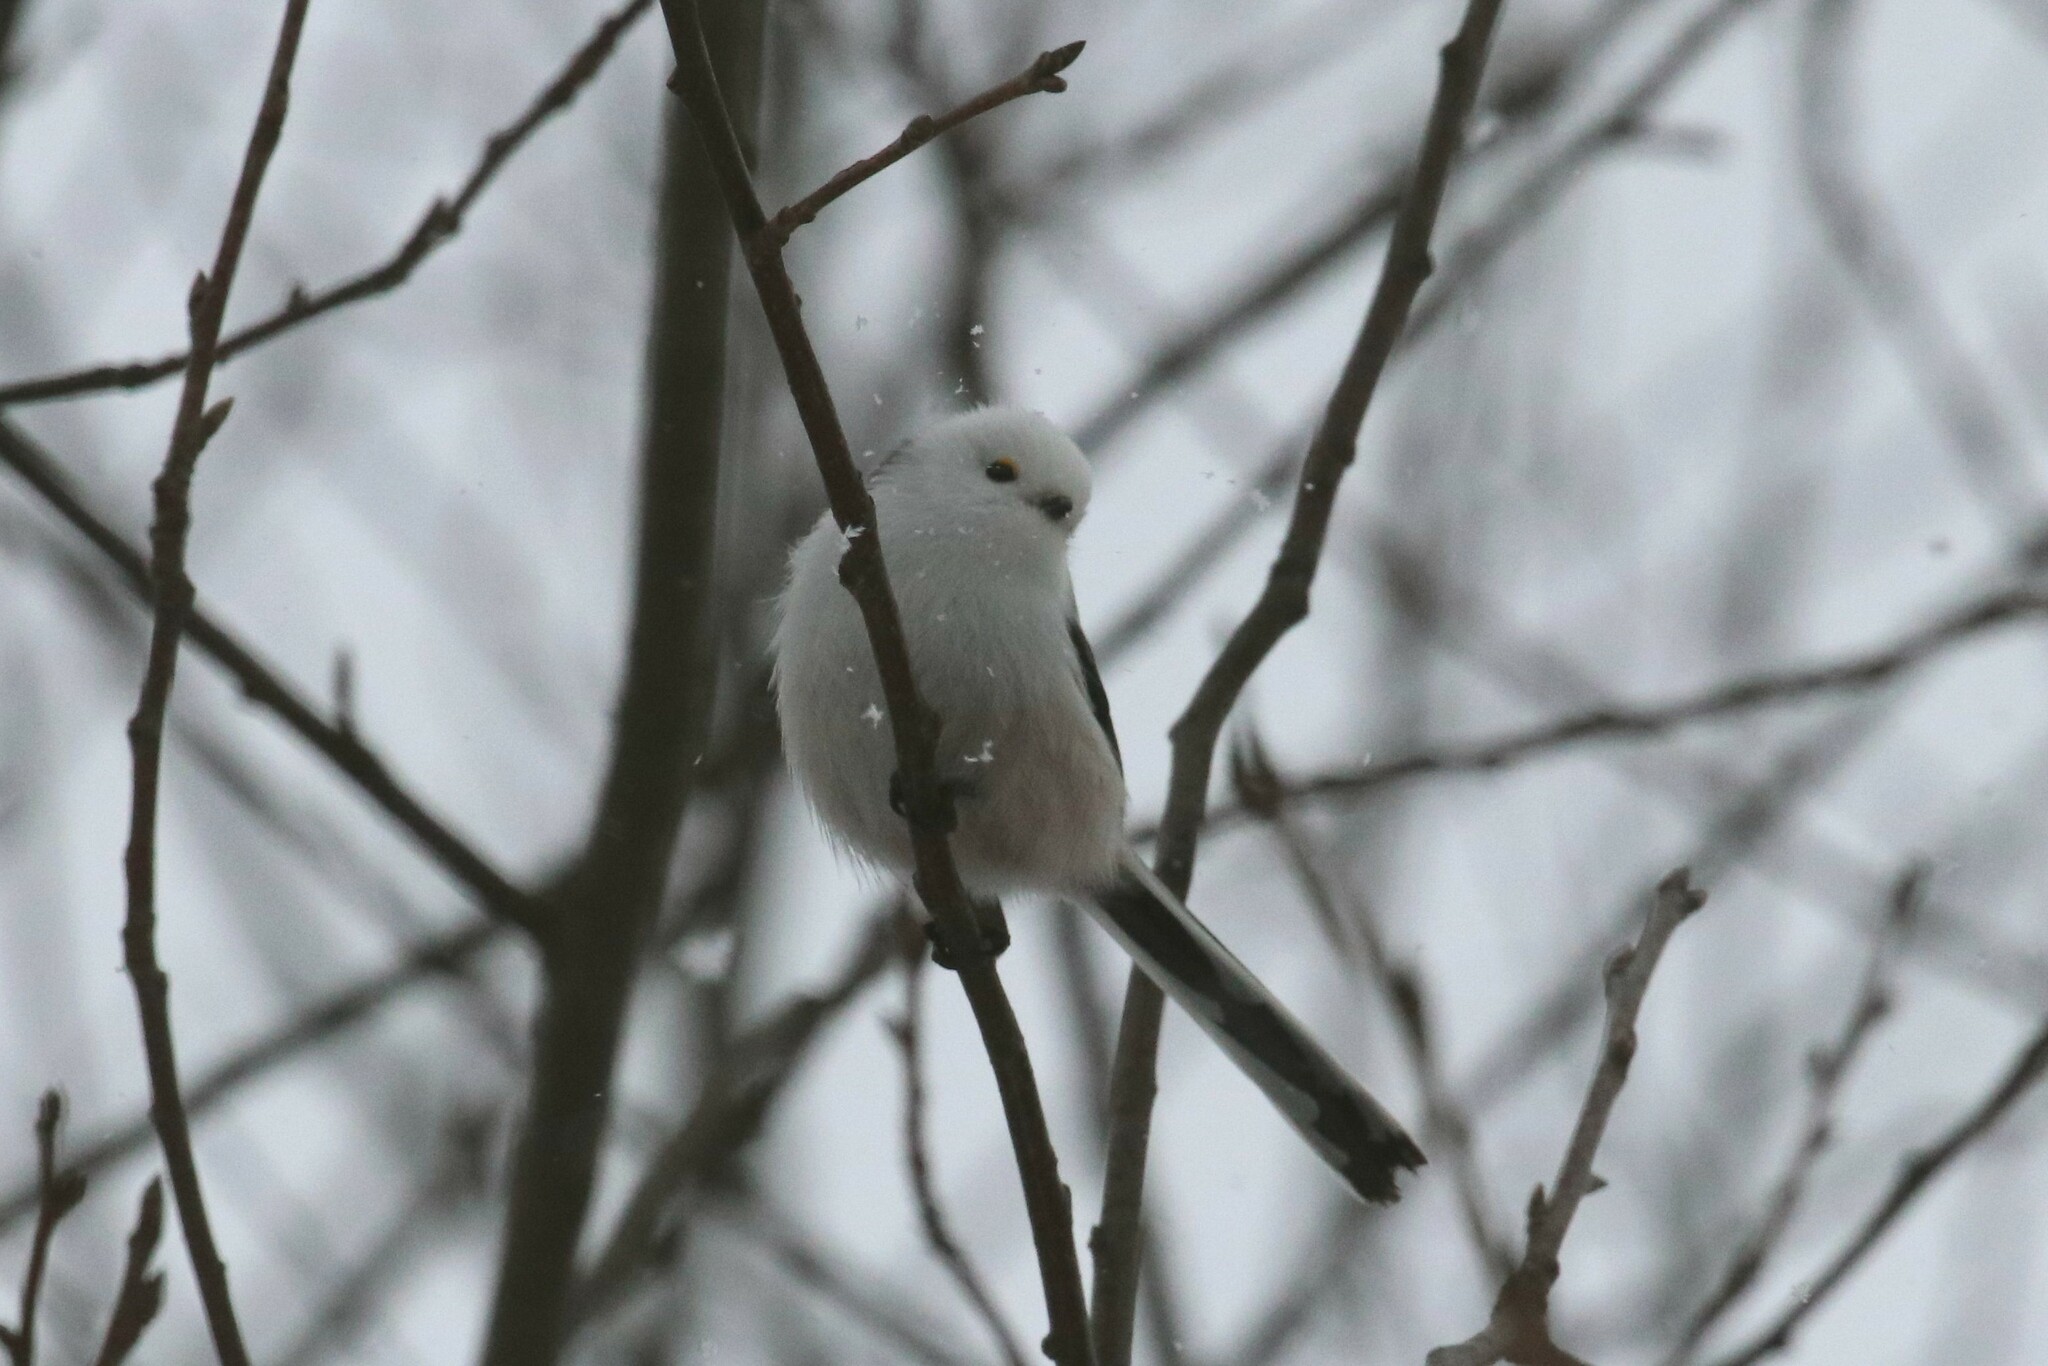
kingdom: Animalia
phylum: Chordata
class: Aves
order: Passeriformes
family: Aegithalidae
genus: Aegithalos
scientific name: Aegithalos caudatus
